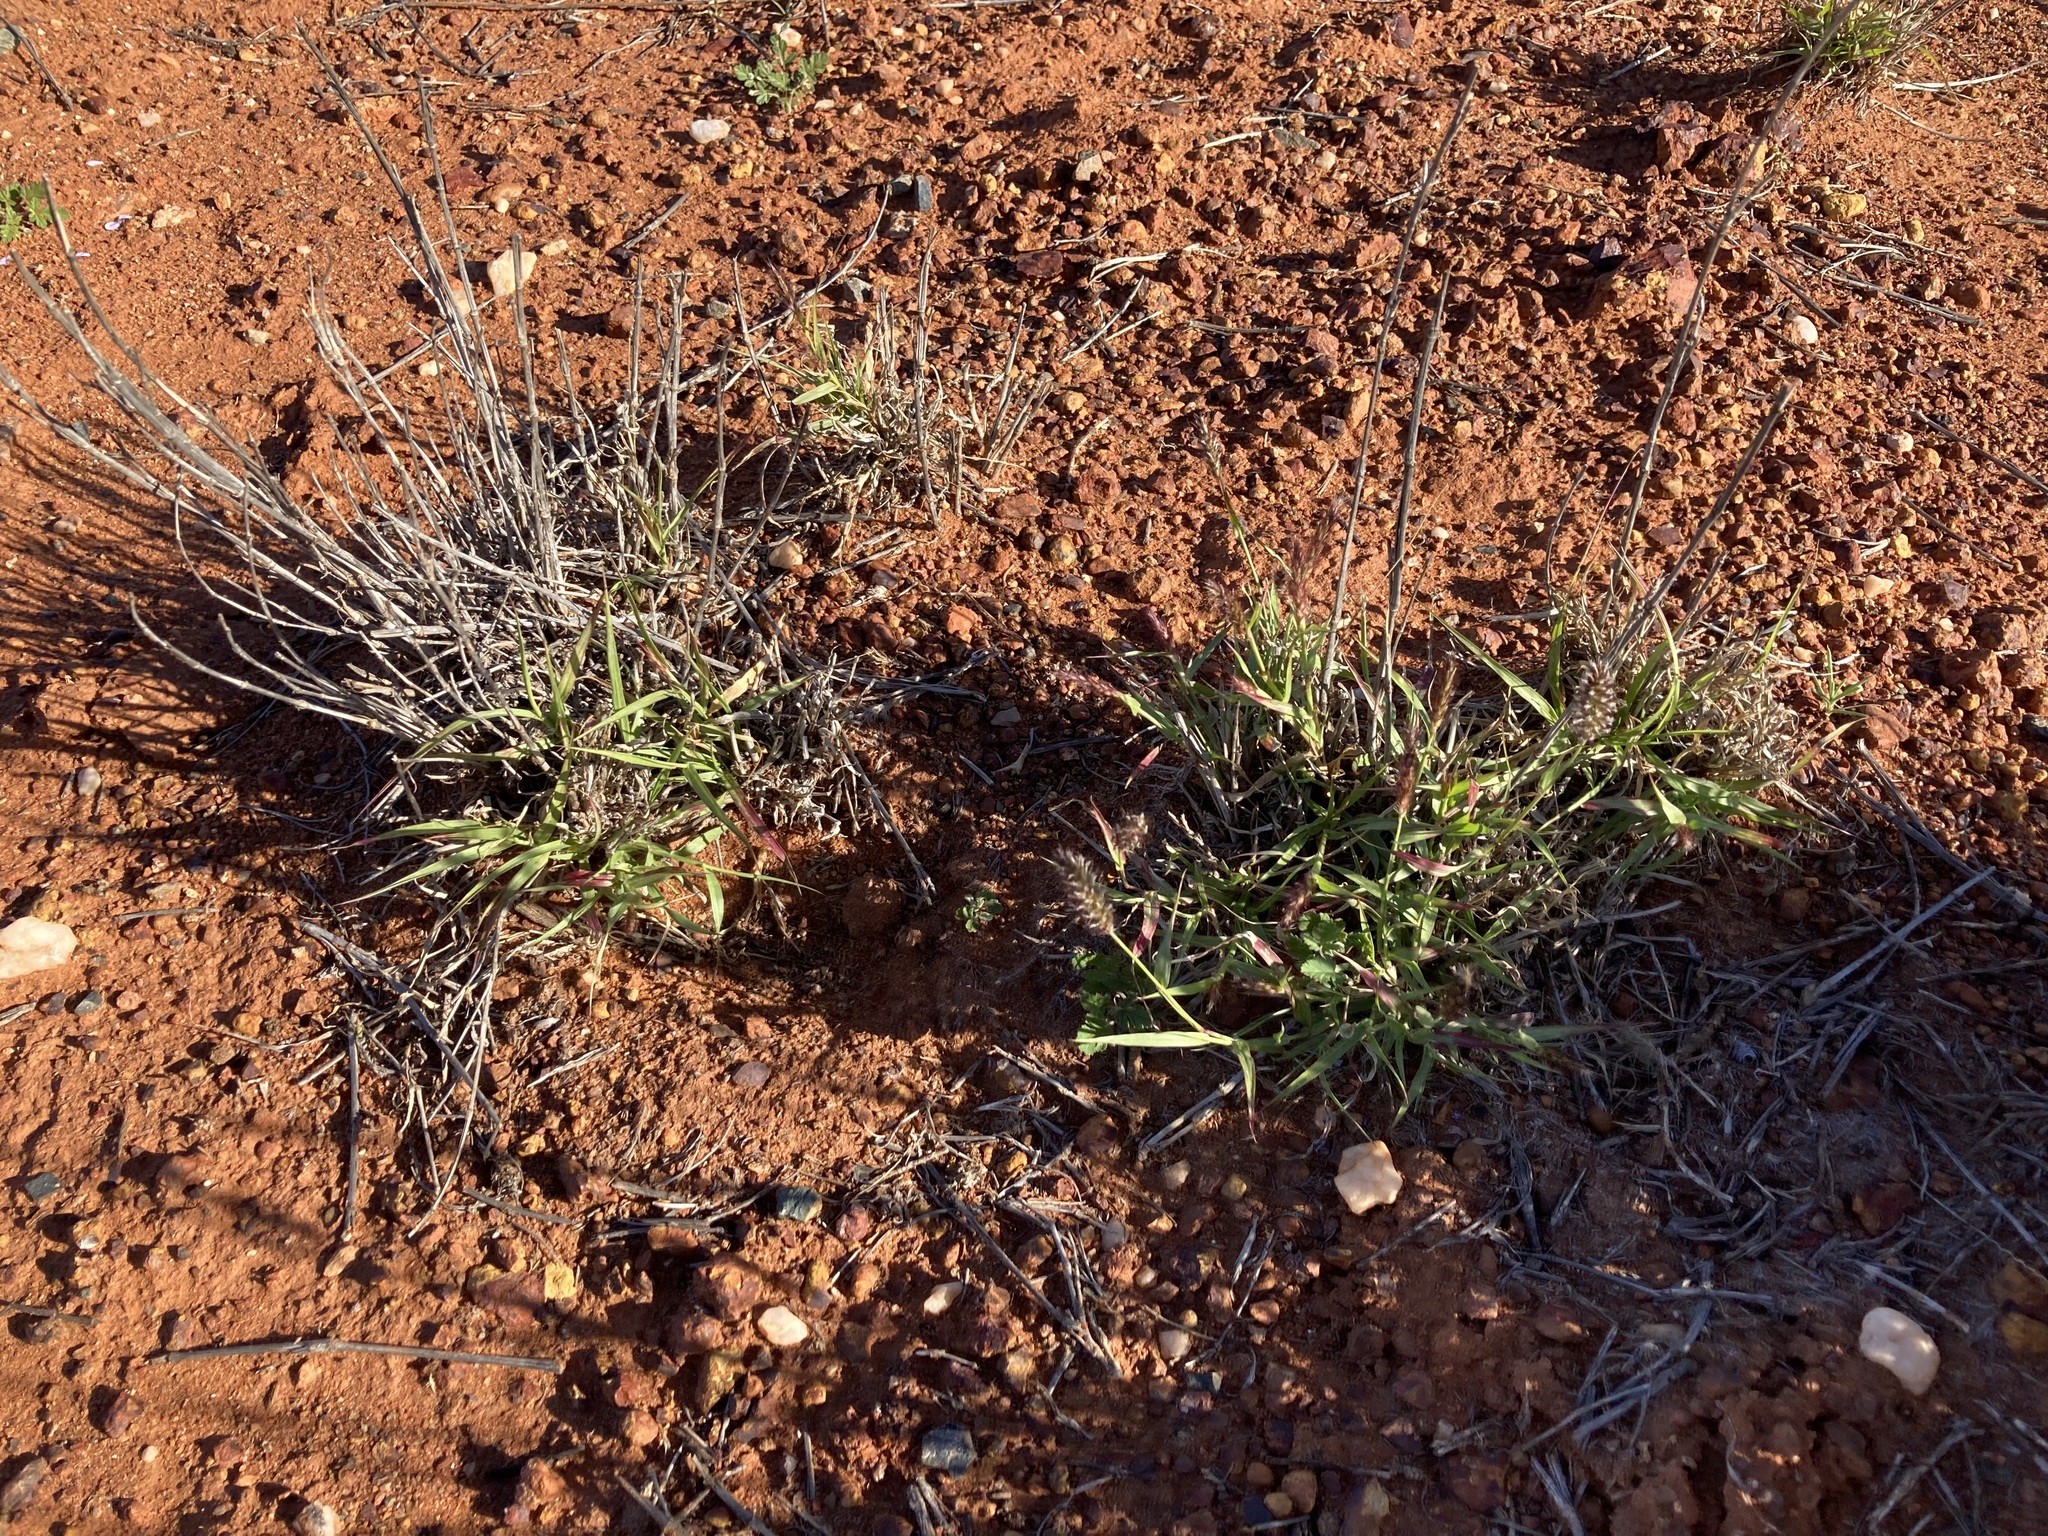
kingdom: Plantae
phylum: Tracheophyta
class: Liliopsida
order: Poales
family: Poaceae
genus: Cenchrus
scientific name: Cenchrus ciliaris
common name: Buffelgrass
